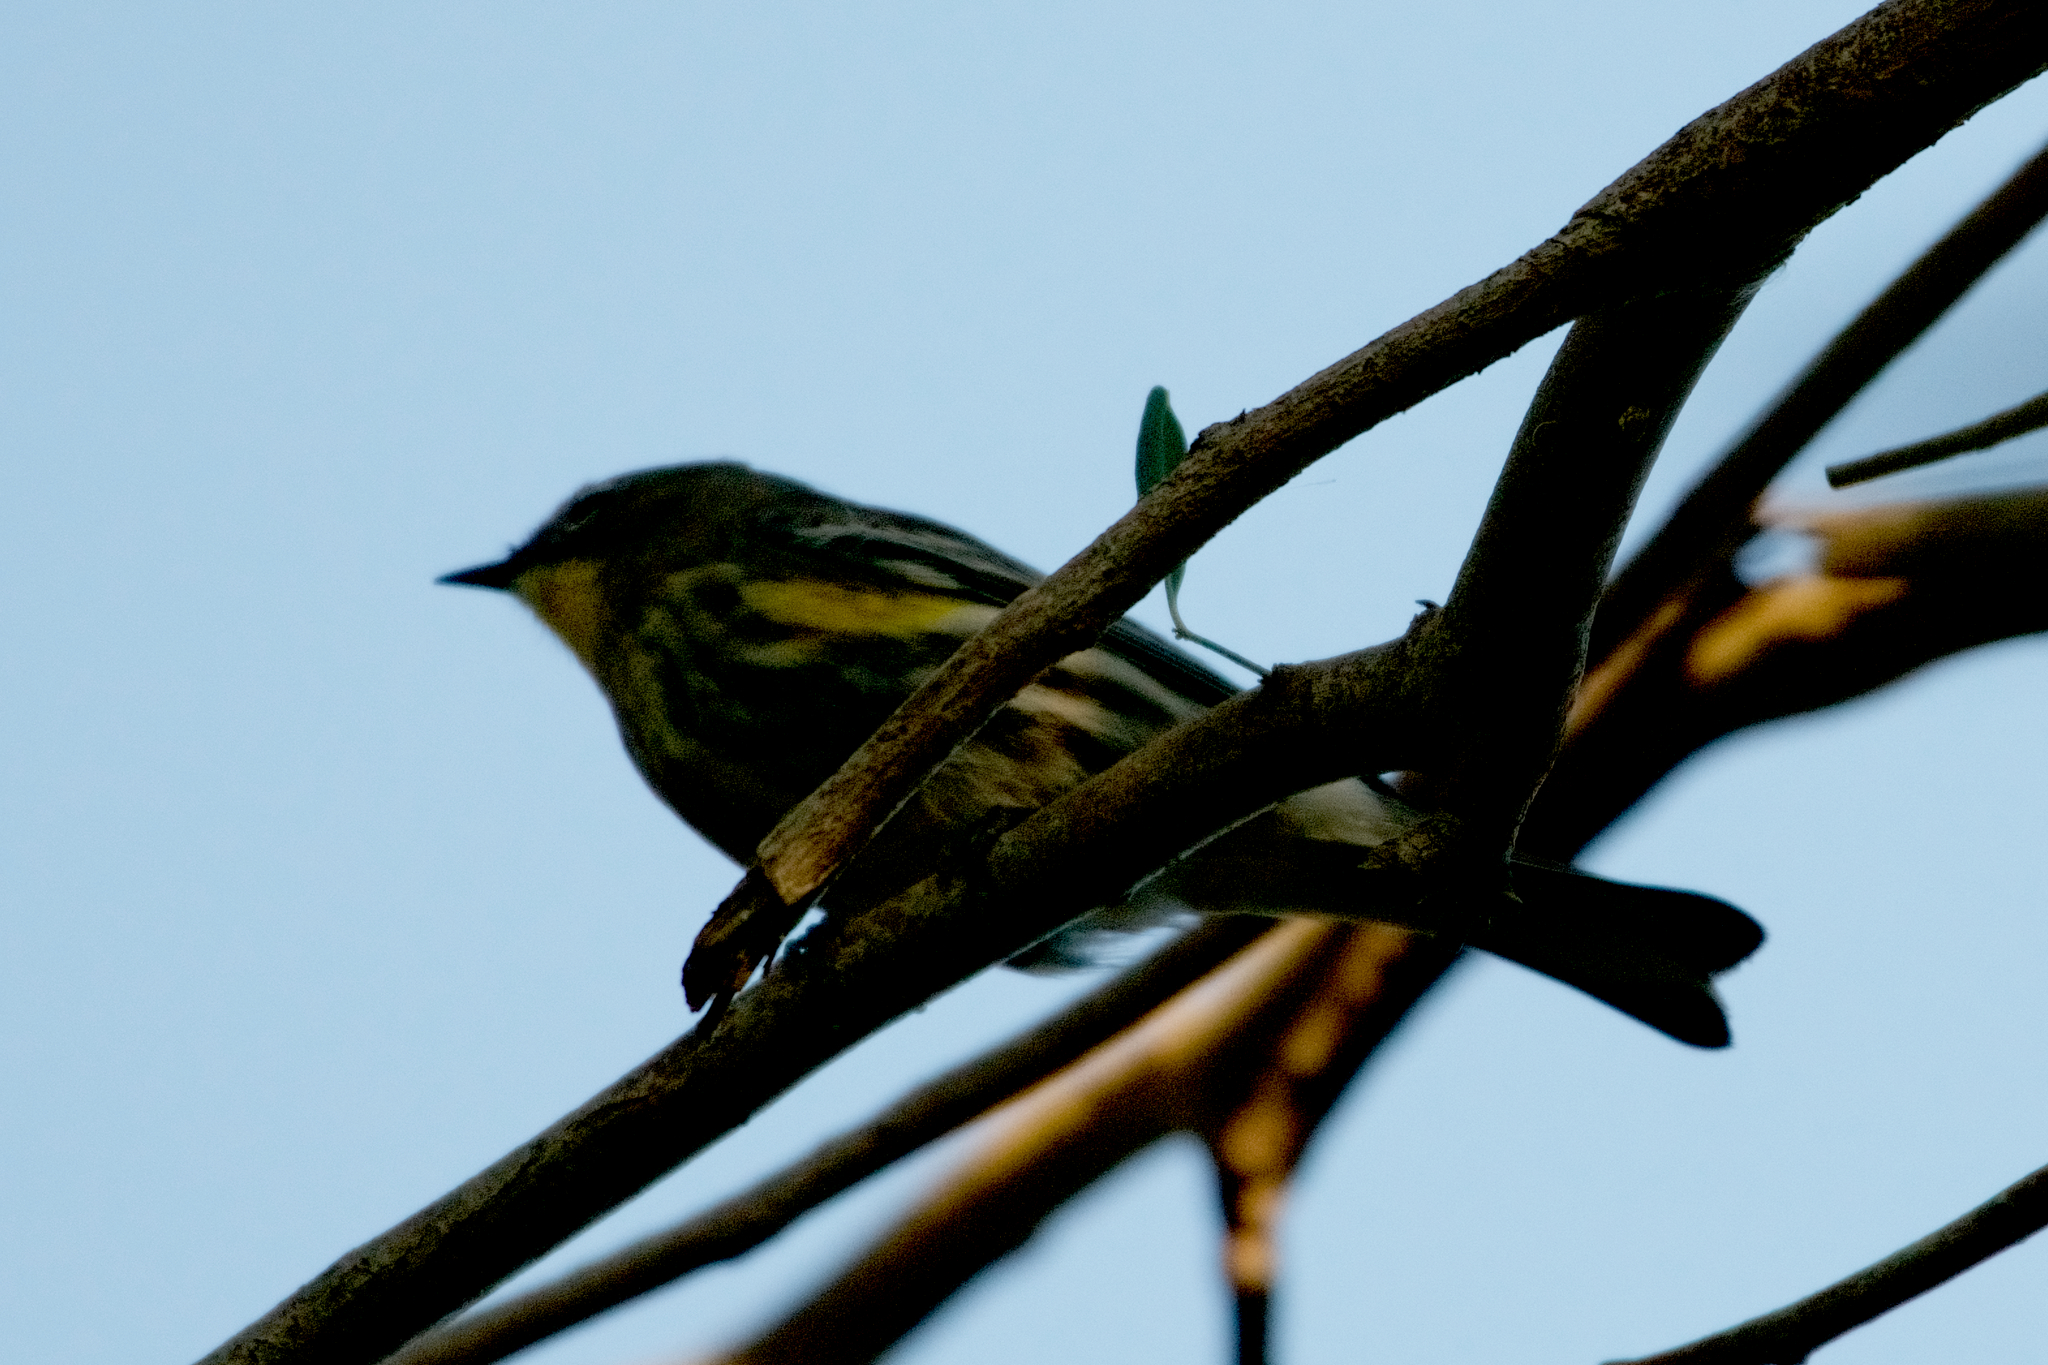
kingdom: Animalia
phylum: Chordata
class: Aves
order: Passeriformes
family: Parulidae
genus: Setophaga
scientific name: Setophaga coronata
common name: Myrtle warbler
